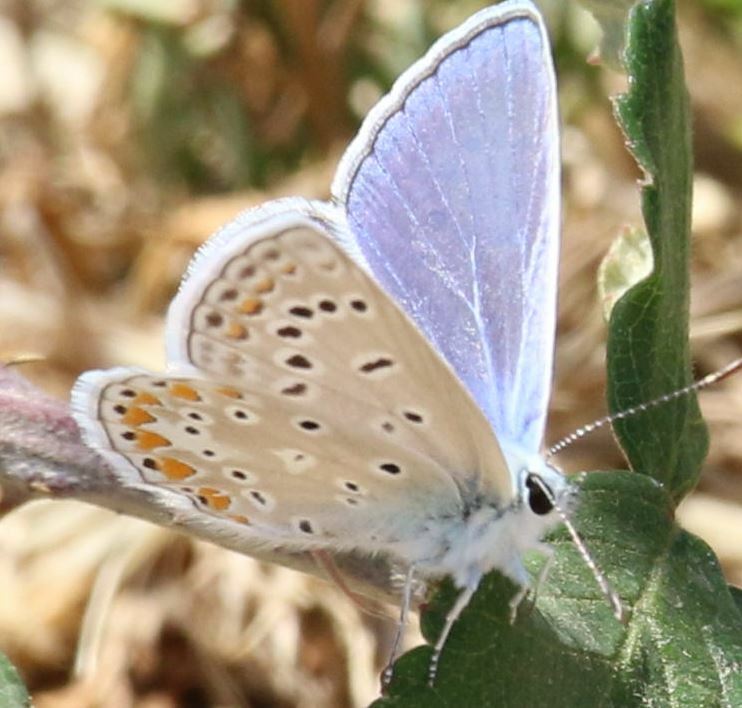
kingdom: Animalia
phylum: Arthropoda
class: Insecta
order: Lepidoptera
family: Lycaenidae
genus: Polyommatus
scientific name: Polyommatus icarus
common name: Common blue
